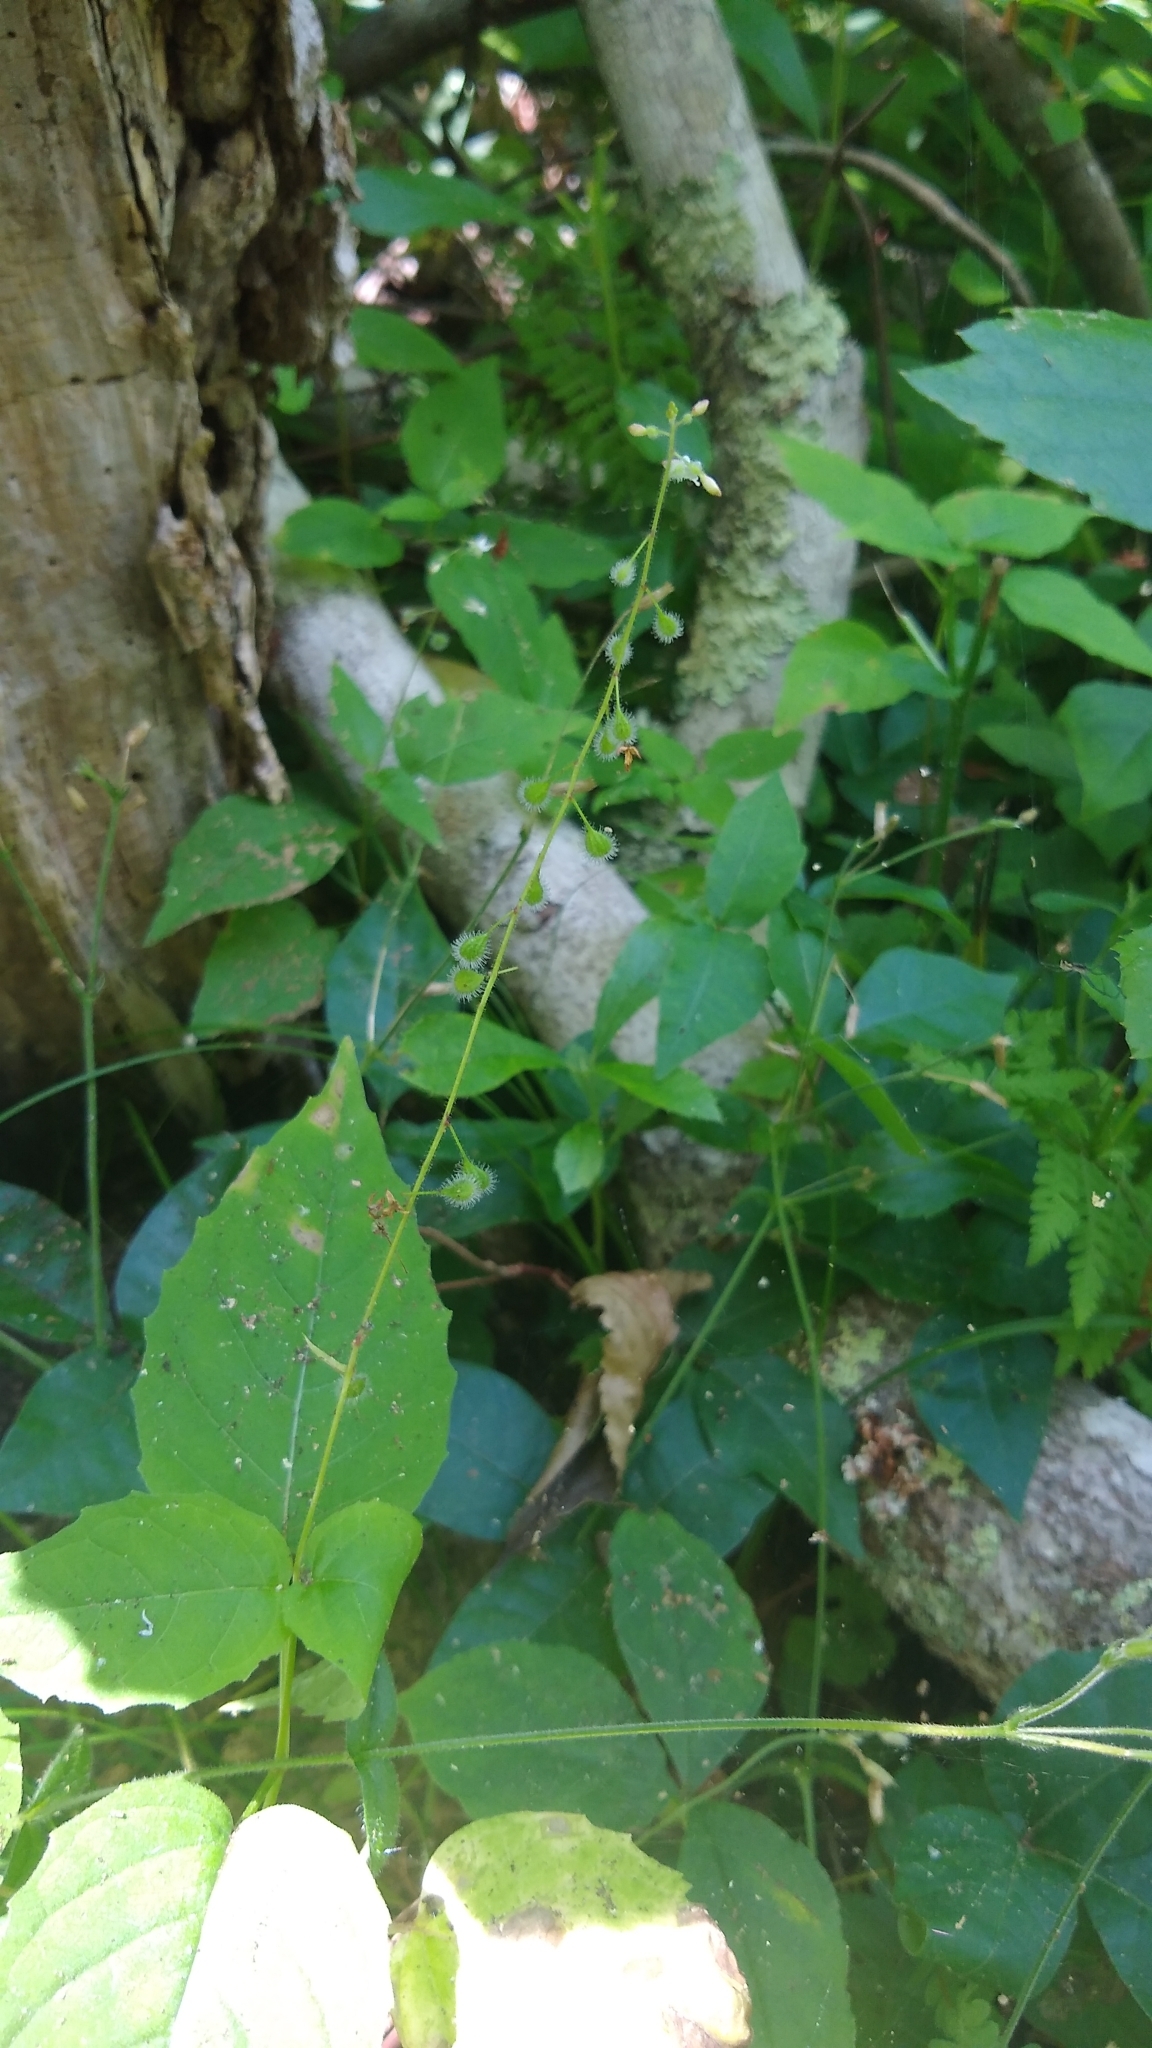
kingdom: Plantae
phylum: Tracheophyta
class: Magnoliopsida
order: Myrtales
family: Onagraceae
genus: Circaea
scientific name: Circaea canadensis
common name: Broad-leaved enchanter's nightshade
